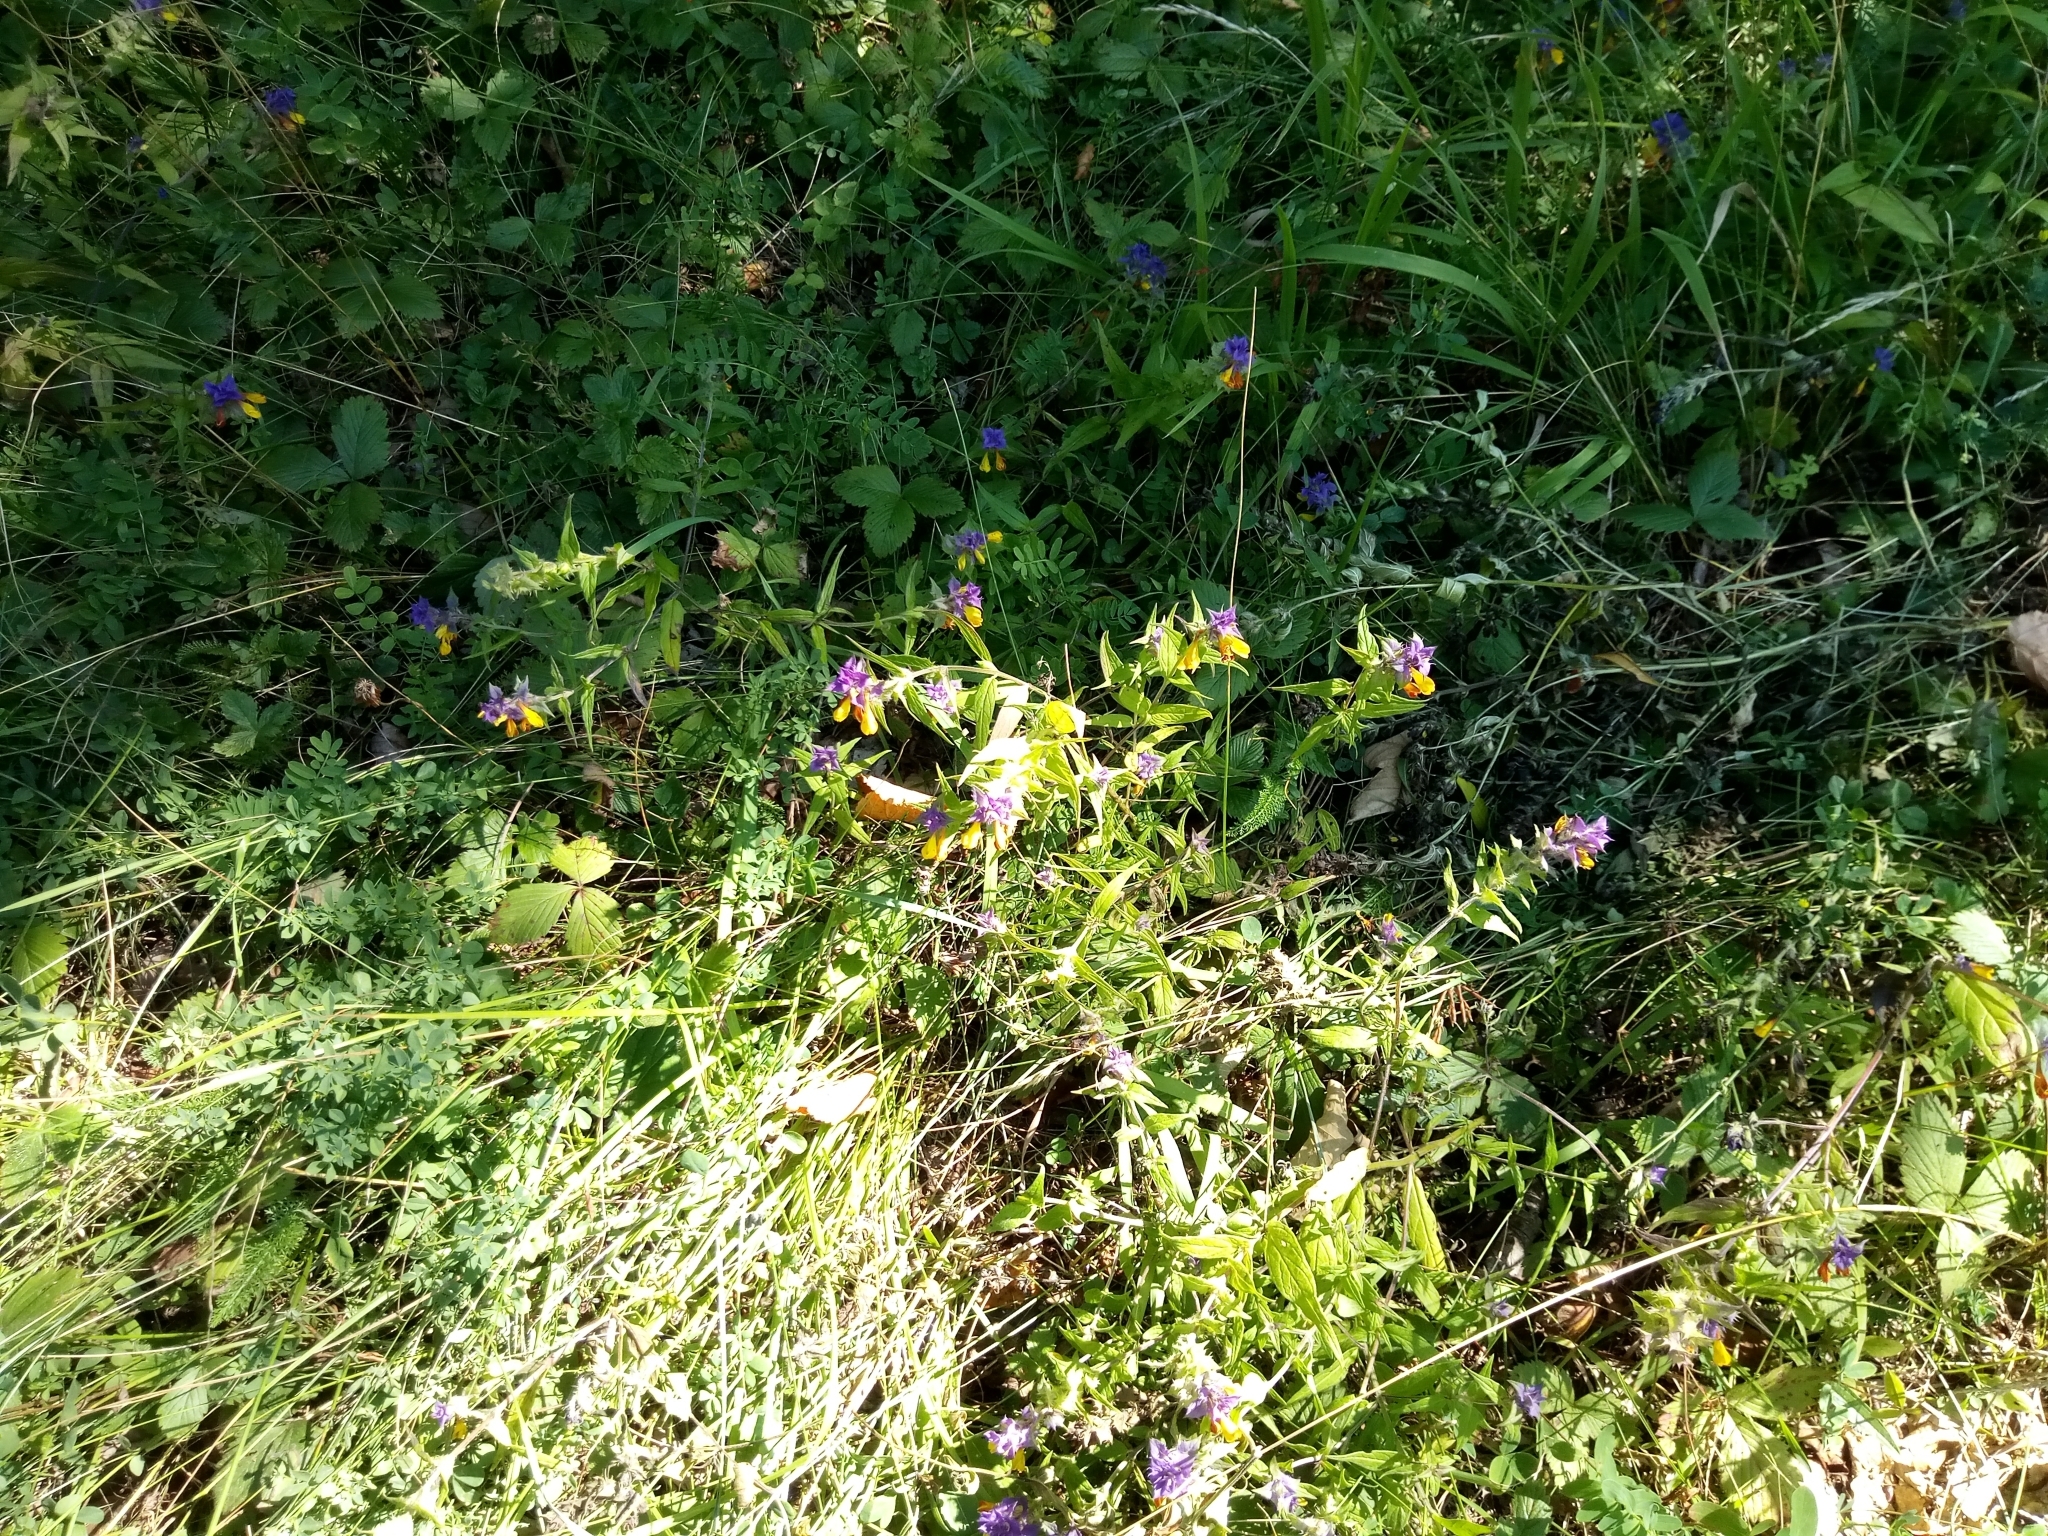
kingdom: Plantae
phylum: Tracheophyta
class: Magnoliopsida
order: Lamiales
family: Orobanchaceae
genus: Melampyrum
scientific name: Melampyrum nemorosum
